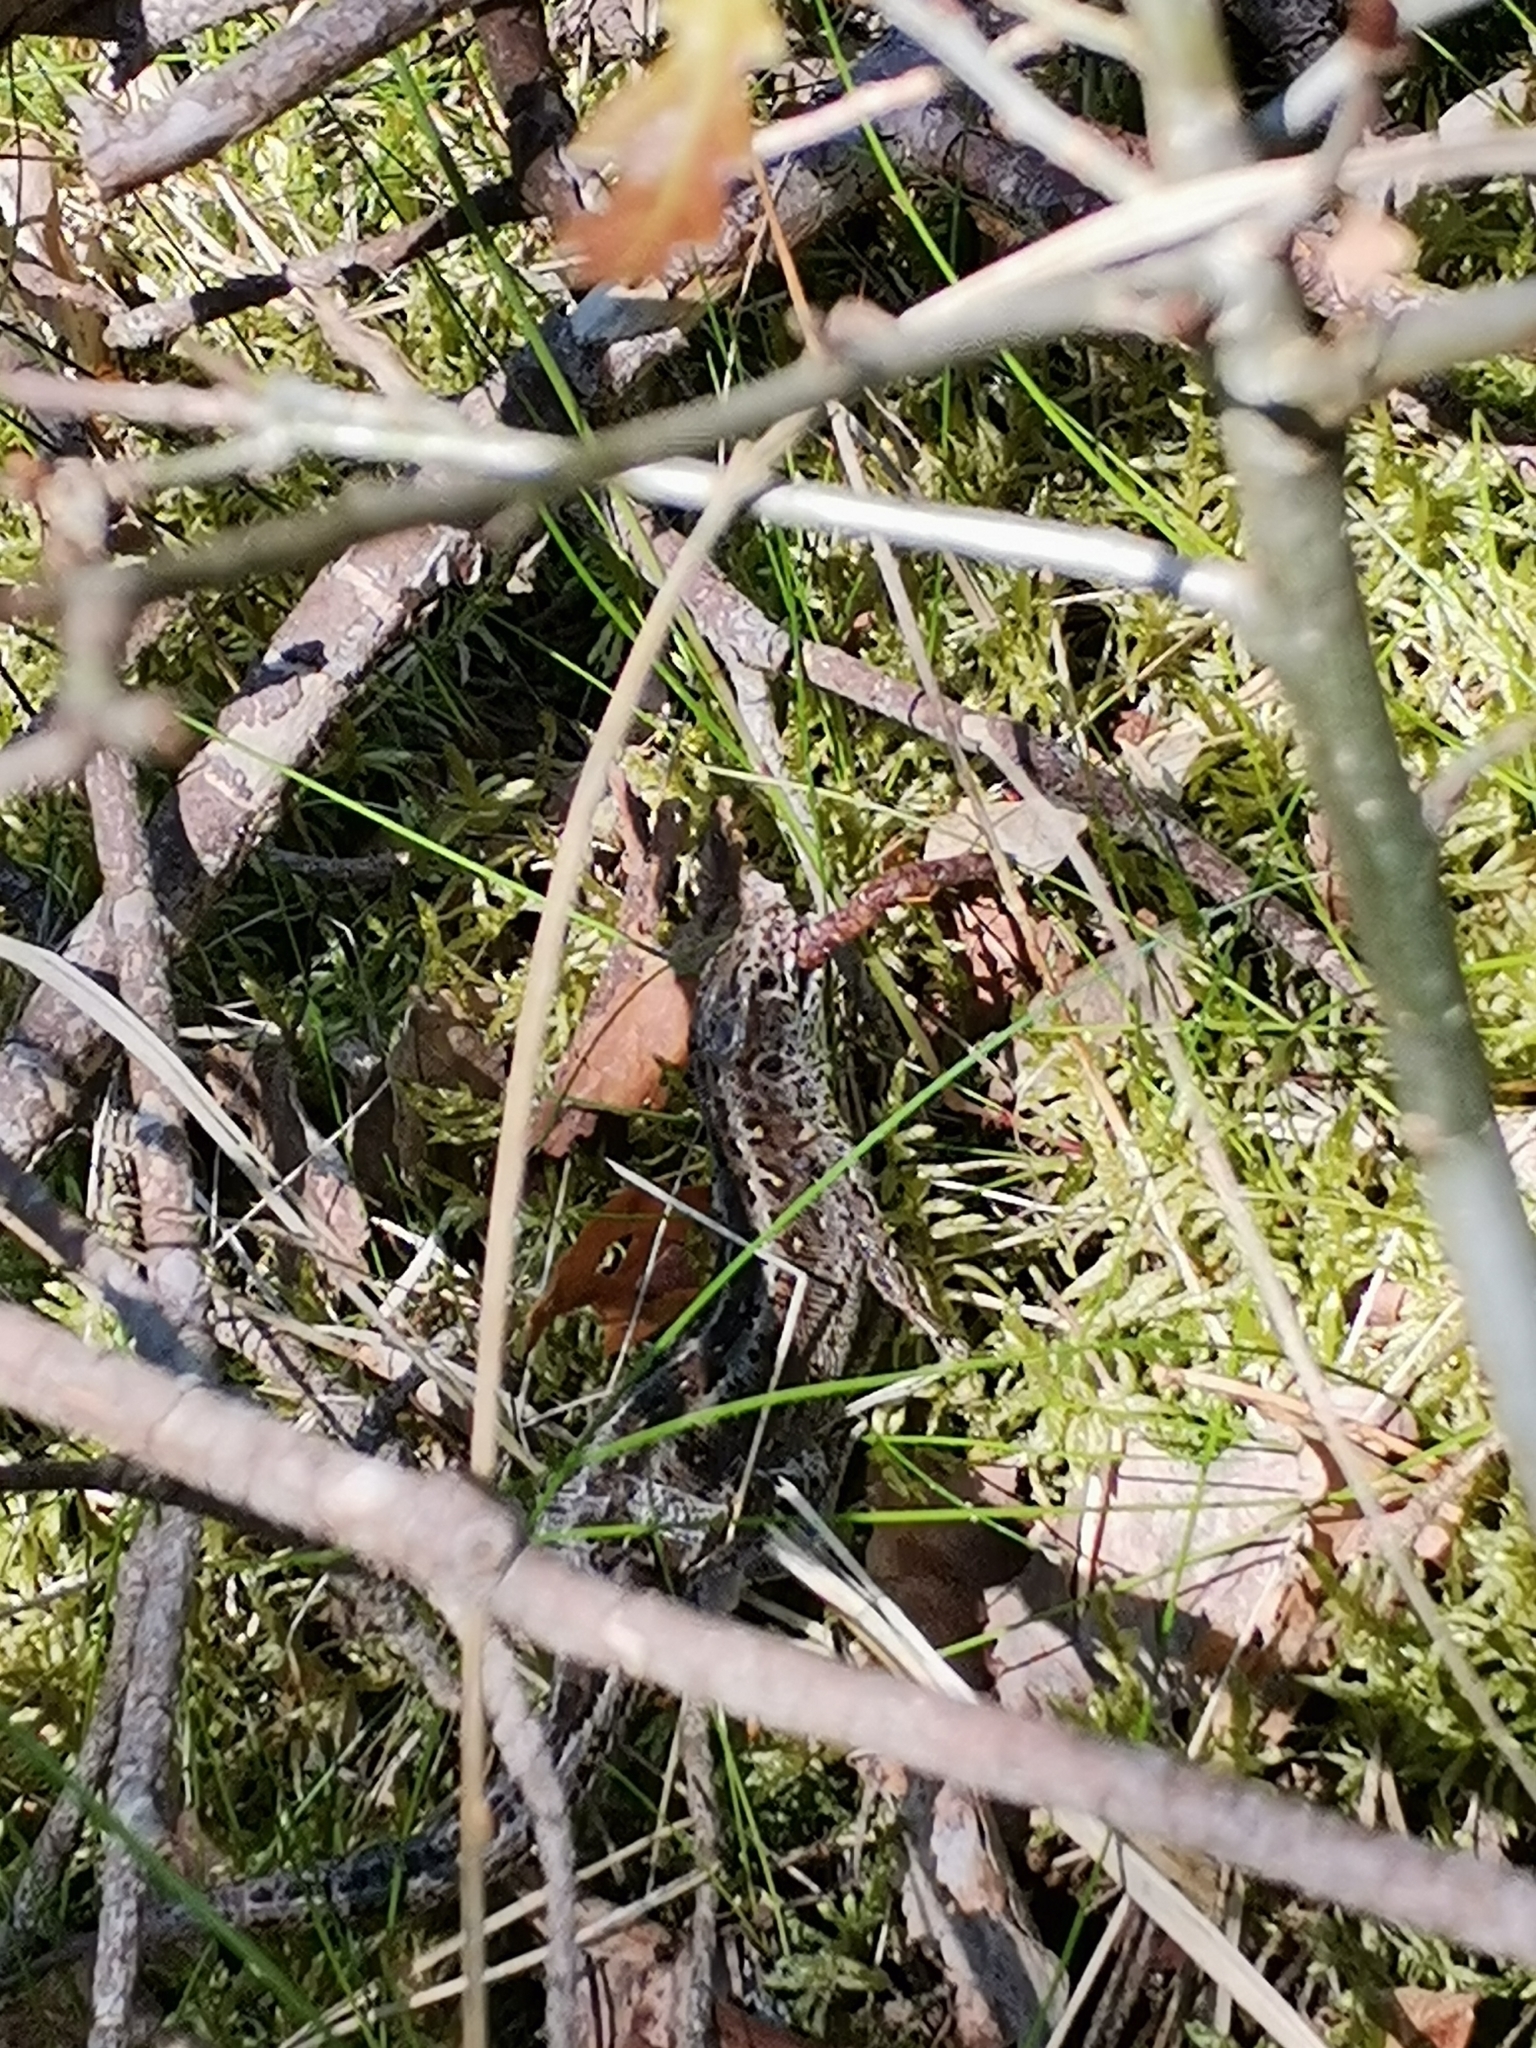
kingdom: Animalia
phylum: Chordata
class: Squamata
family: Lacertidae
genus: Lacerta
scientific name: Lacerta agilis
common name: Sand lizard
